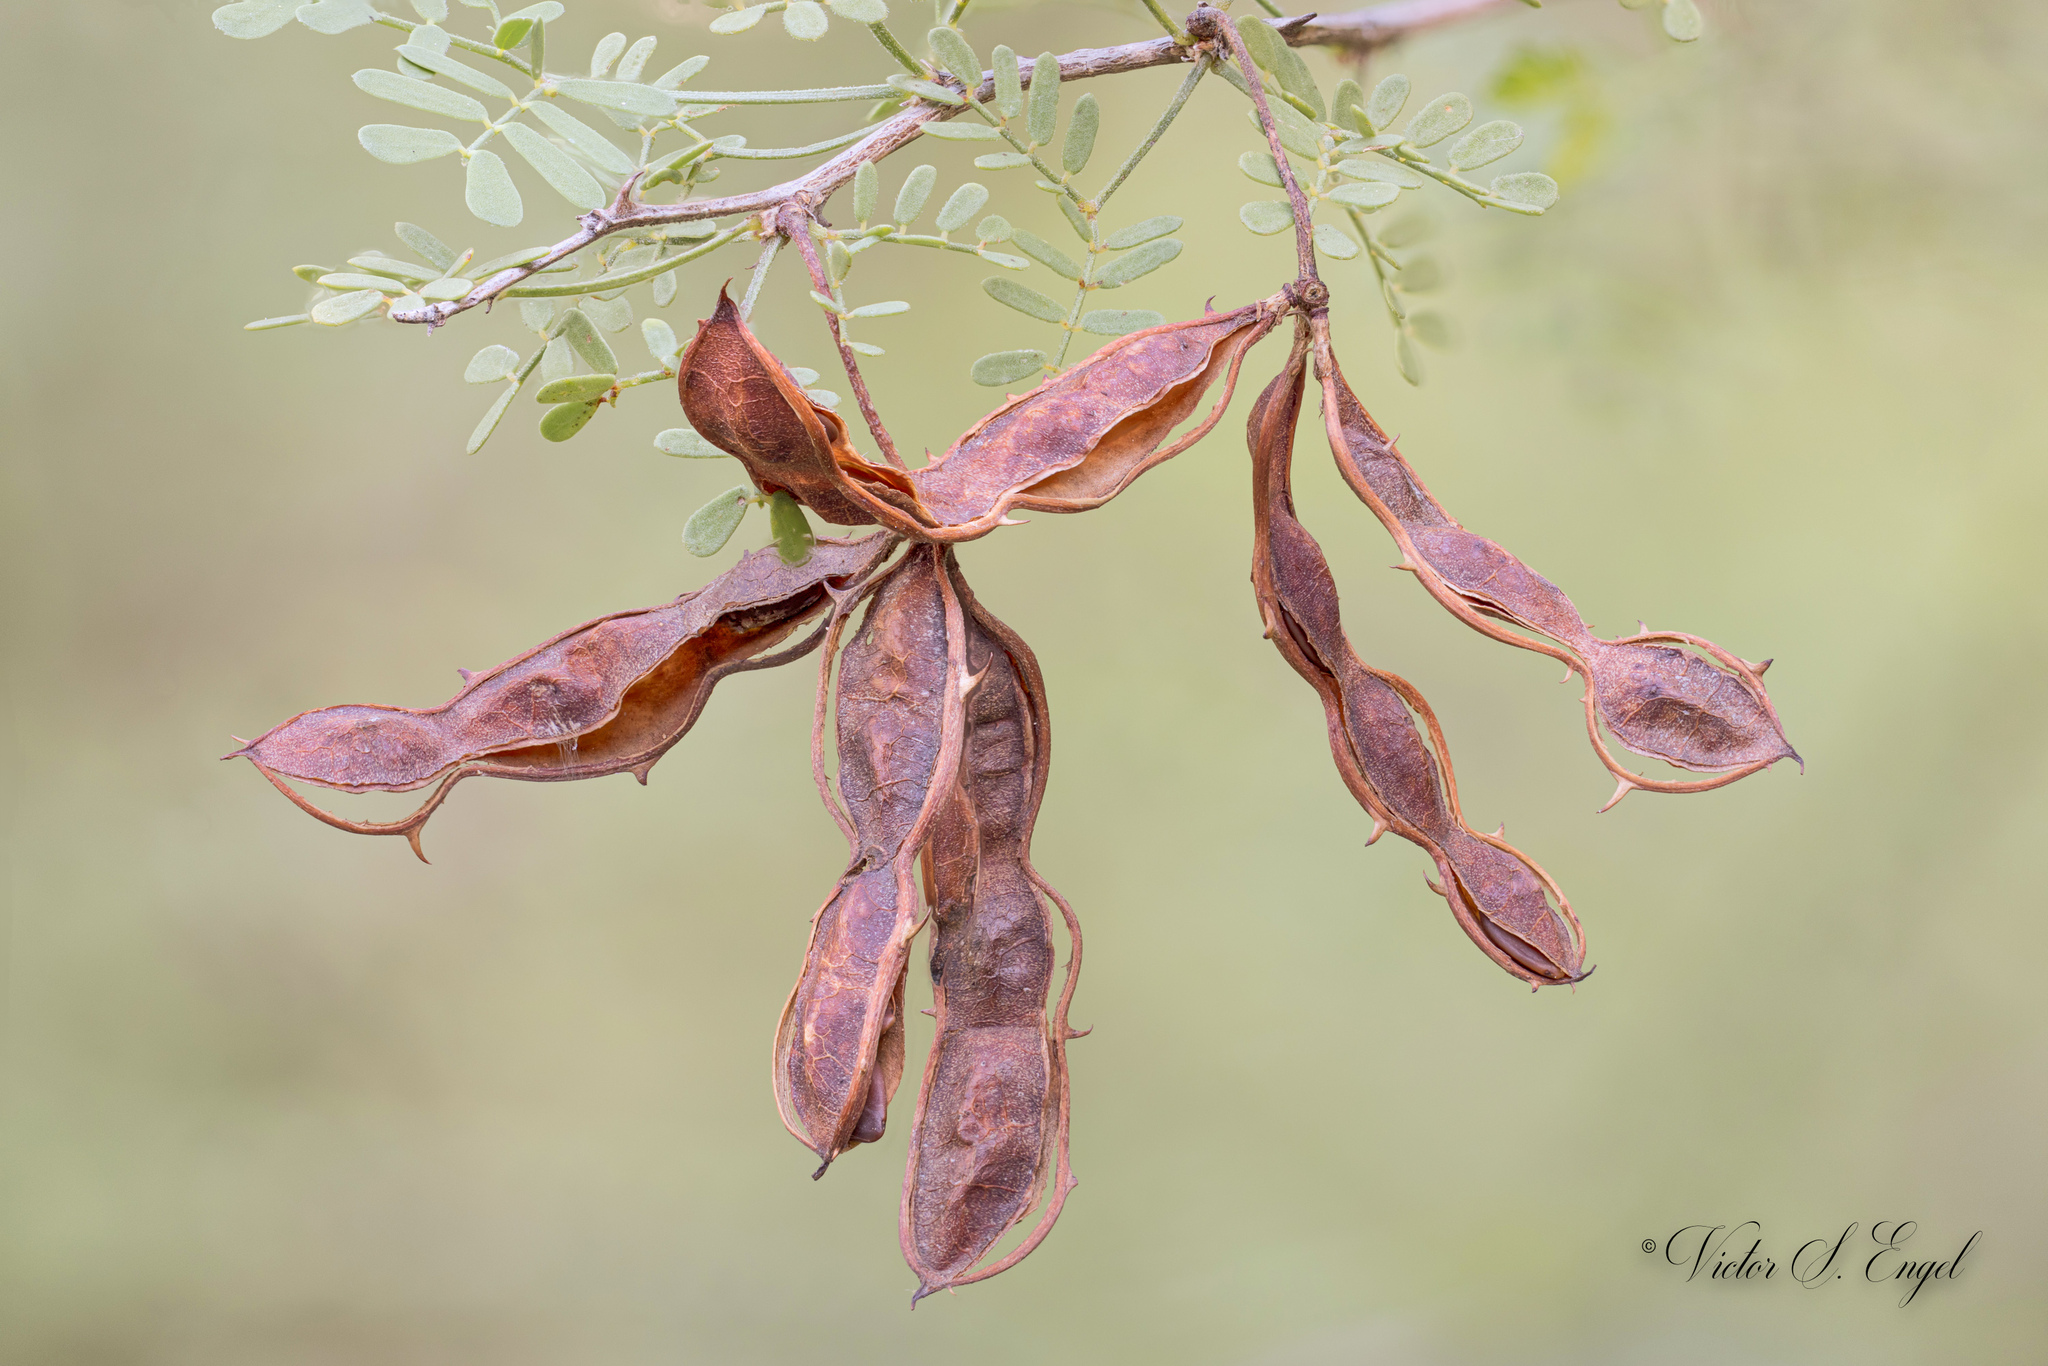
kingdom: Plantae
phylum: Tracheophyta
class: Magnoliopsida
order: Fabales
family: Fabaceae
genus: Mimosa
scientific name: Mimosa texana
